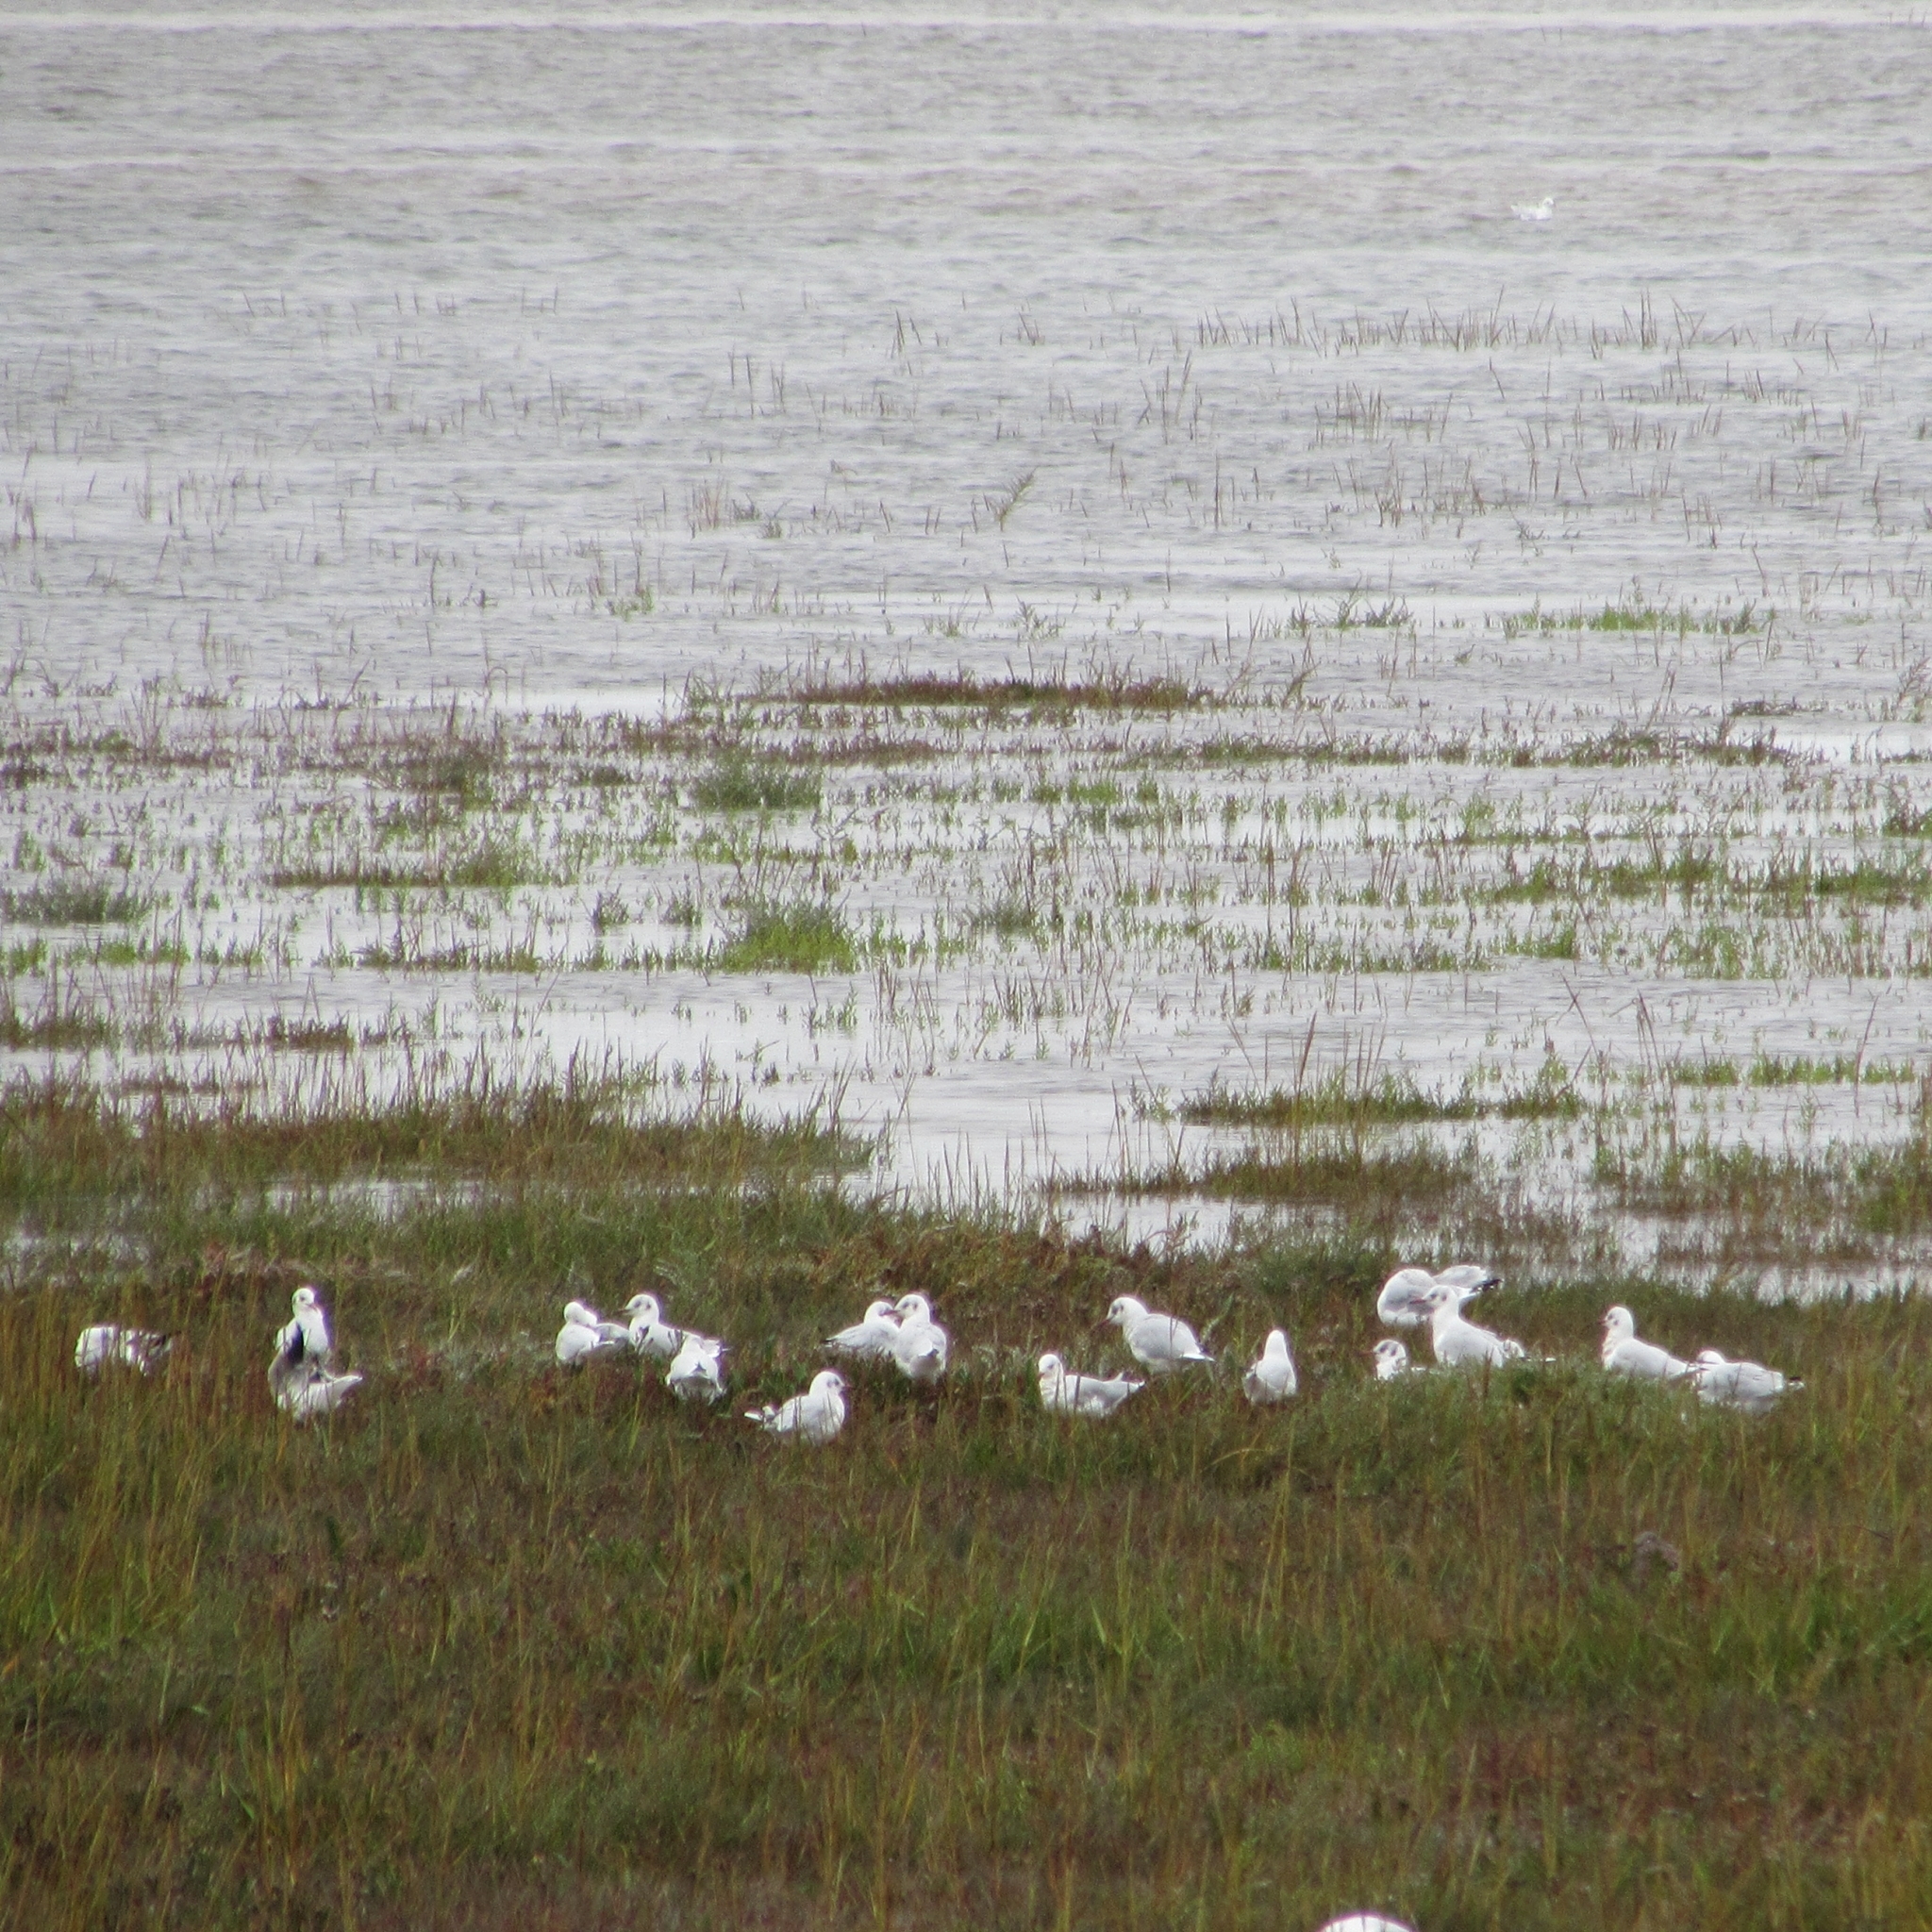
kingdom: Animalia
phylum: Chordata
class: Aves
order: Charadriiformes
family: Laridae
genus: Chroicocephalus
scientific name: Chroicocephalus ridibundus
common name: Black-headed gull
